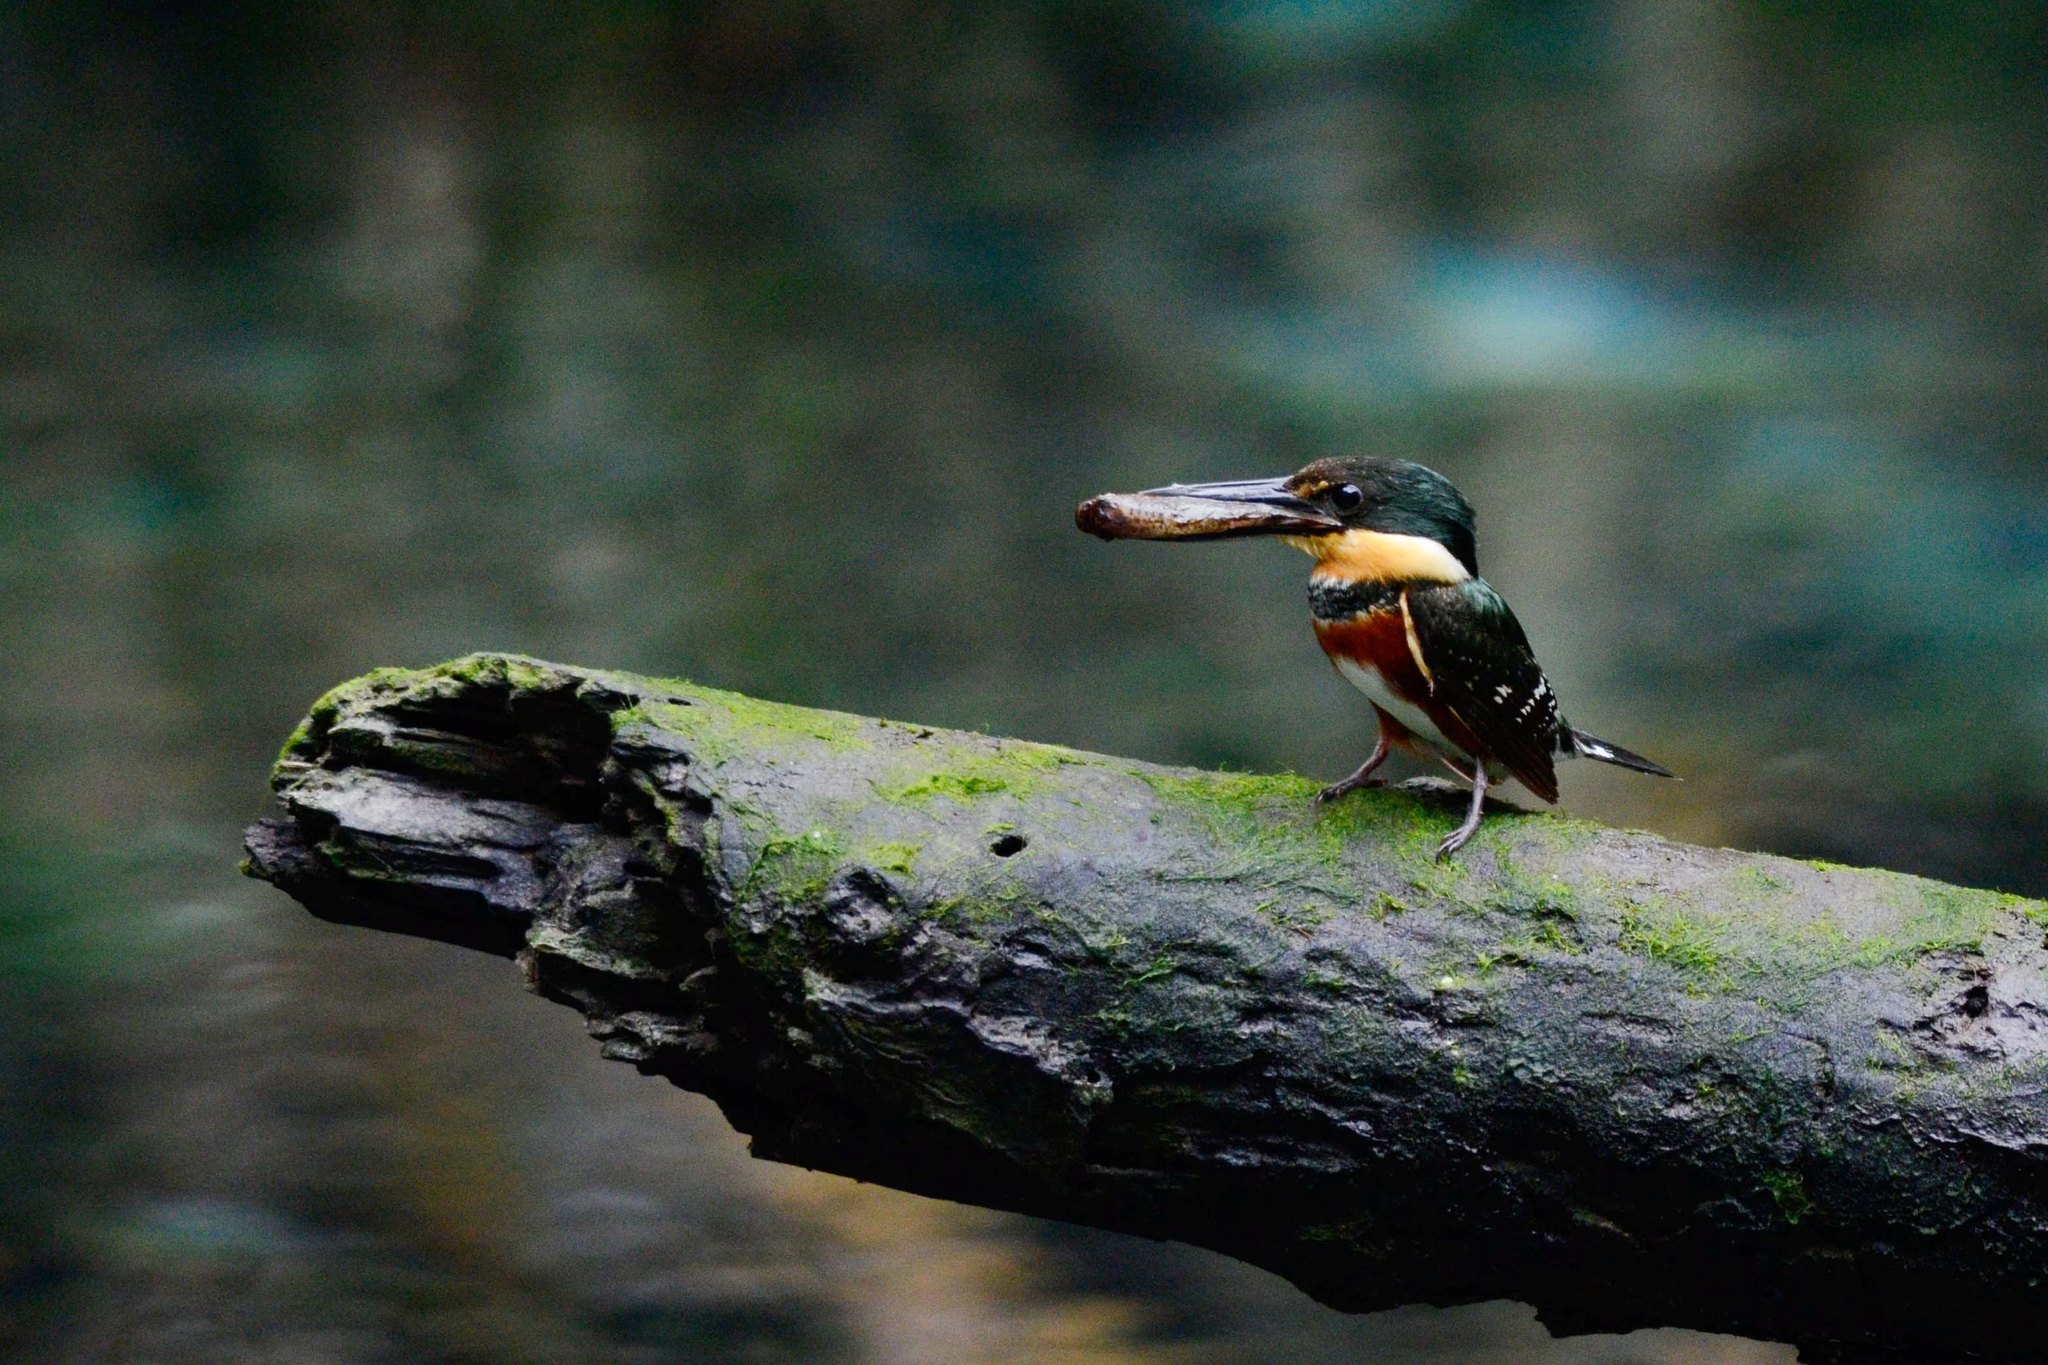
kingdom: Animalia
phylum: Chordata
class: Aves
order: Coraciiformes
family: Alcedinidae
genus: Chloroceryle
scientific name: Chloroceryle aenea
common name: American pygmy kingfisher
